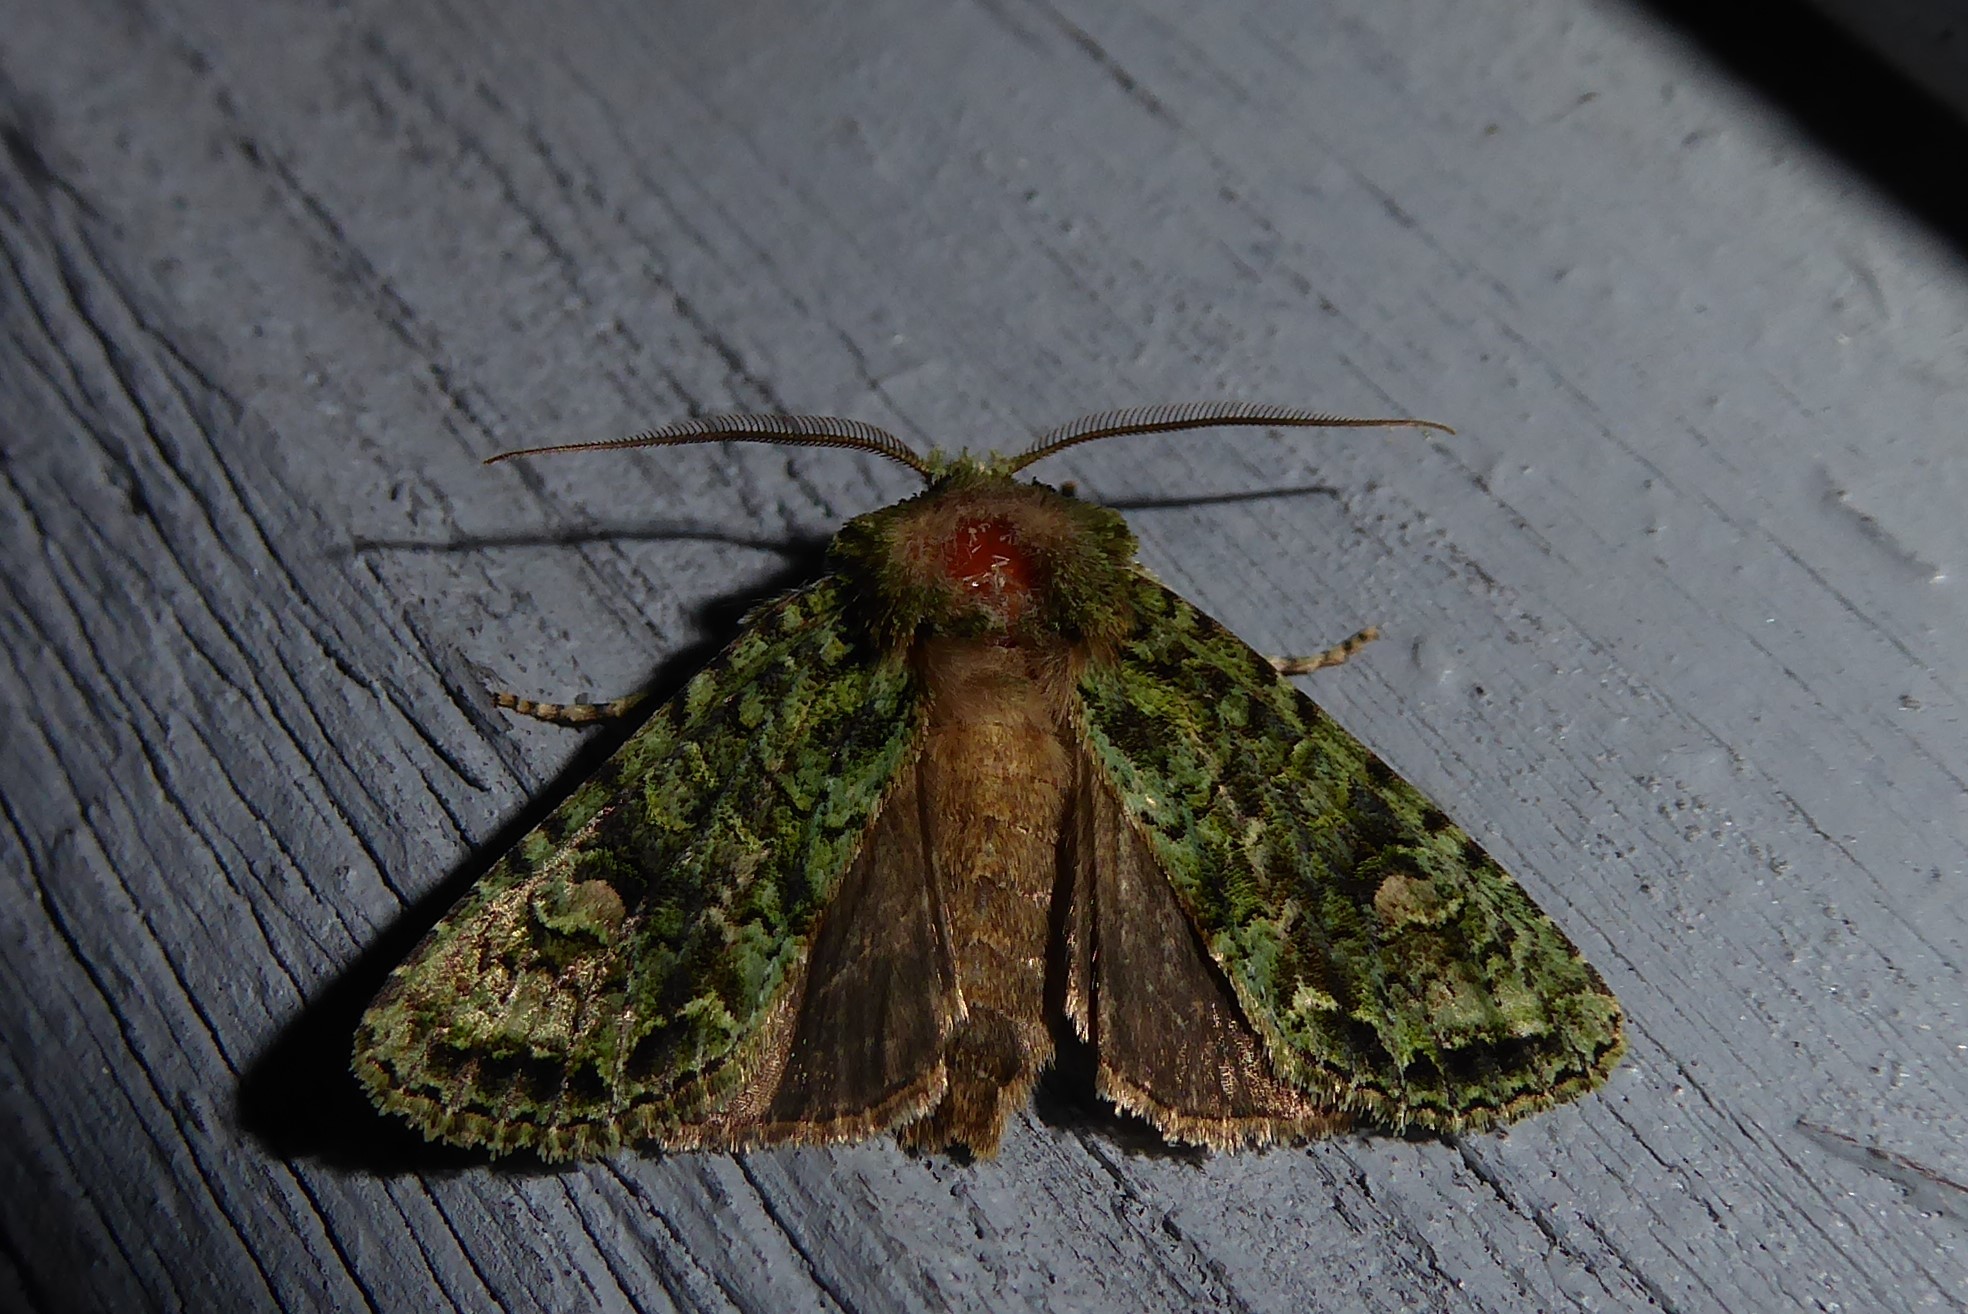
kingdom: Animalia
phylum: Arthropoda
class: Insecta
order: Lepidoptera
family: Noctuidae
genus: Ichneutica
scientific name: Ichneutica
